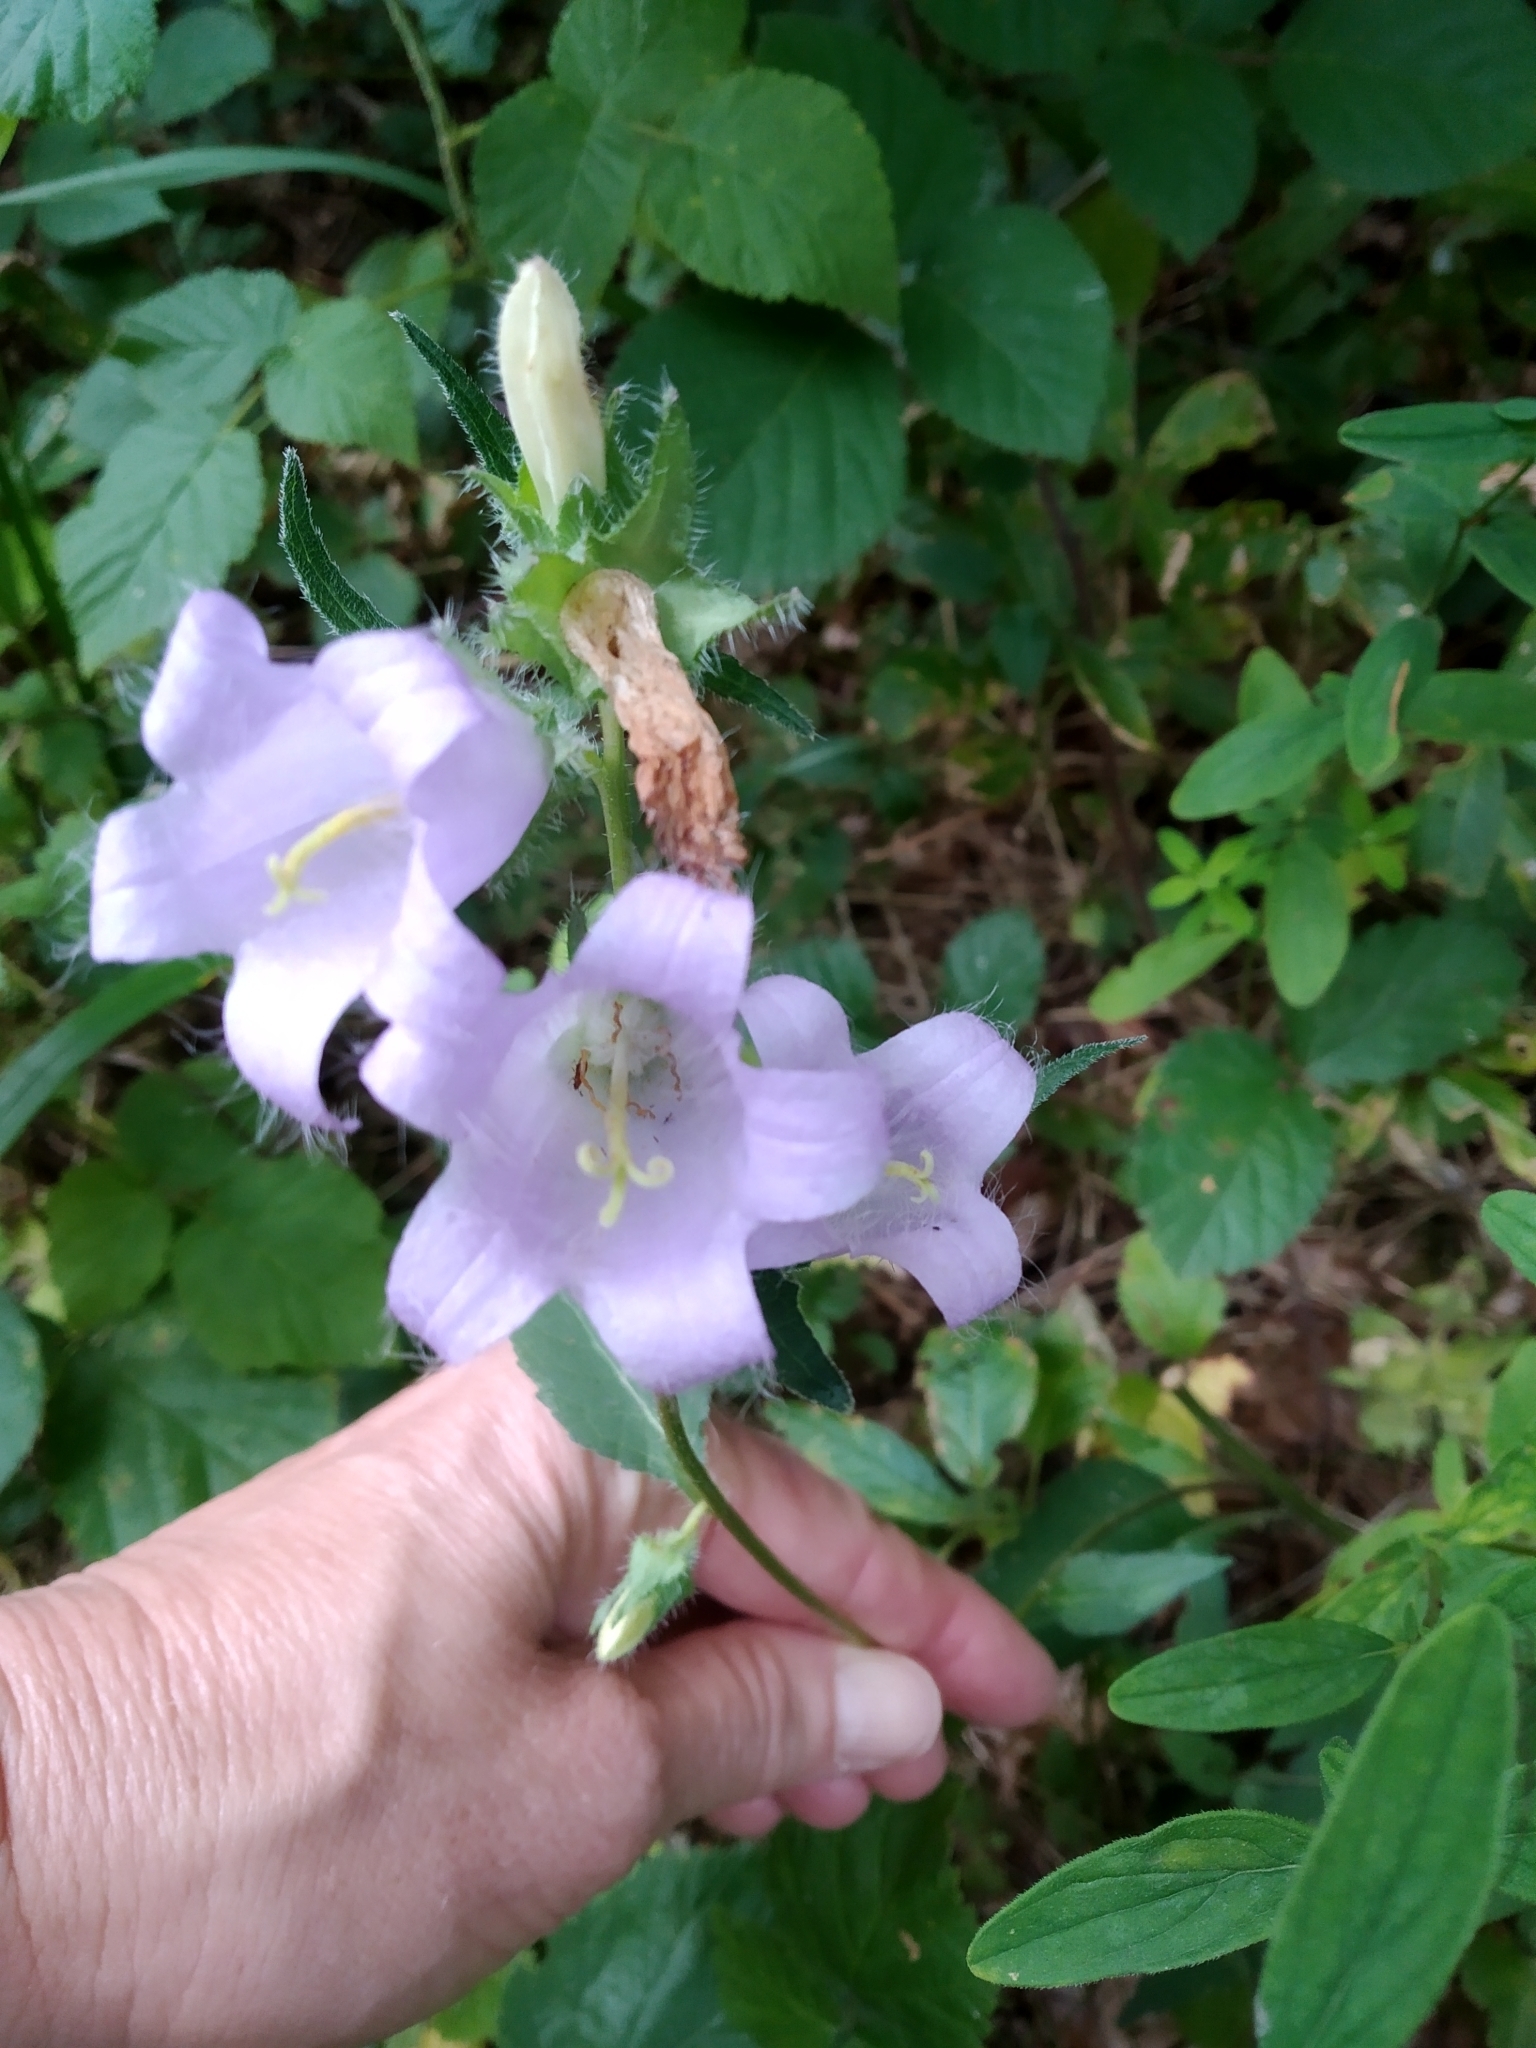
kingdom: Plantae
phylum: Tracheophyta
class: Magnoliopsida
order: Asterales
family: Campanulaceae
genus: Campanula
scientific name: Campanula trachelium
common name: Nettle-leaved bellflower
